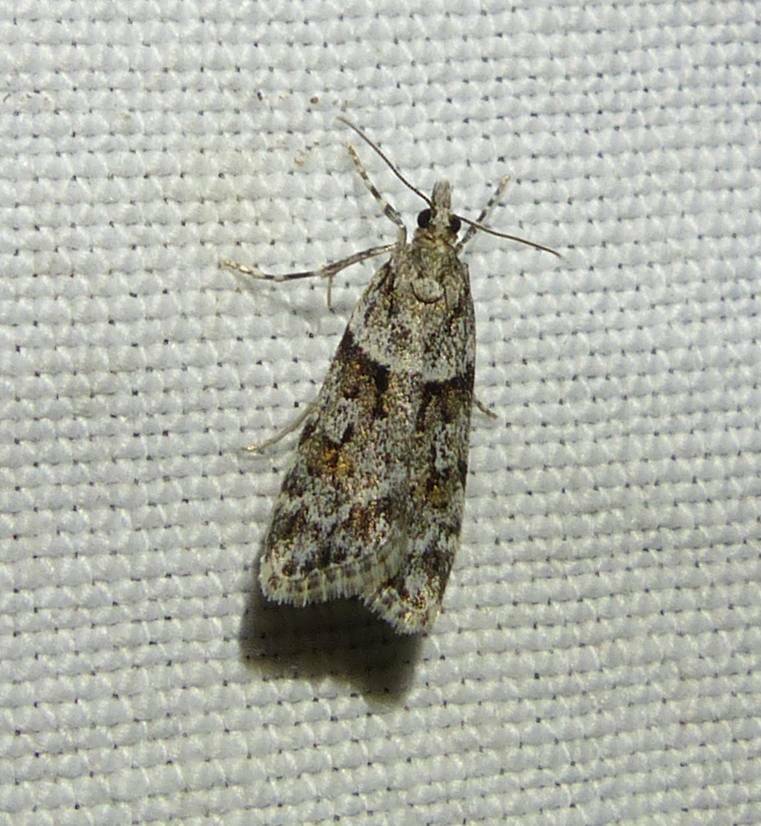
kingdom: Animalia
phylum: Arthropoda
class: Insecta
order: Lepidoptera
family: Crambidae
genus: Scoparia
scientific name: Scoparia biplagialis
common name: Double-striped scoparia moth
